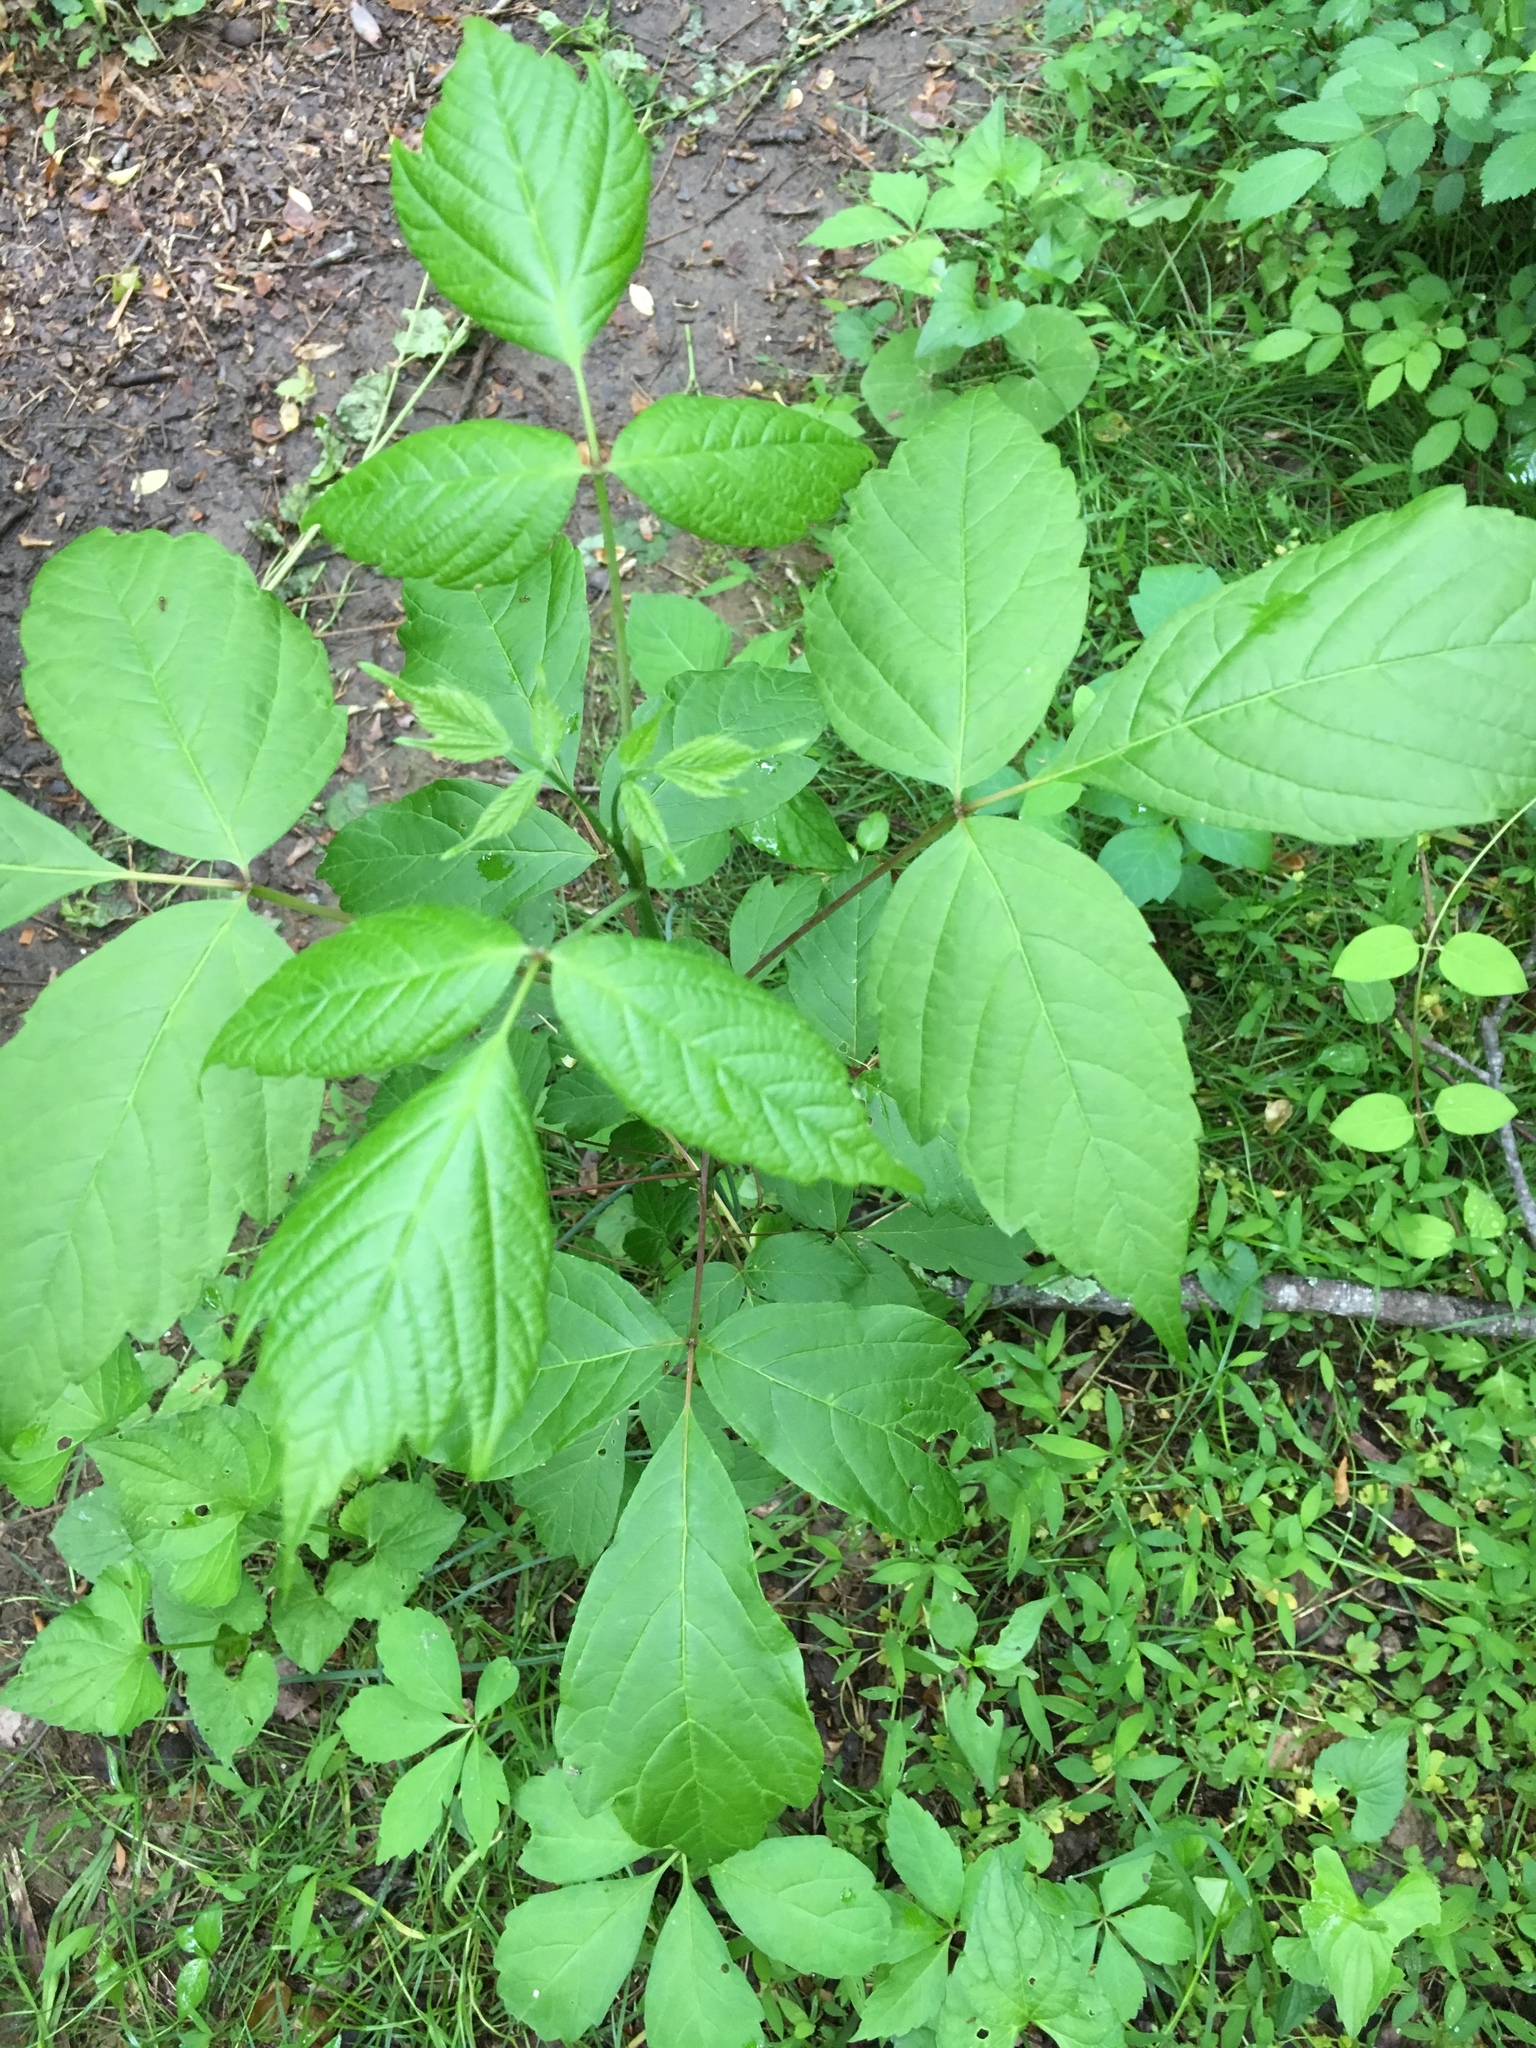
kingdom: Plantae
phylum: Tracheophyta
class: Magnoliopsida
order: Sapindales
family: Sapindaceae
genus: Acer
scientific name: Acer negundo
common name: Ashleaf maple
